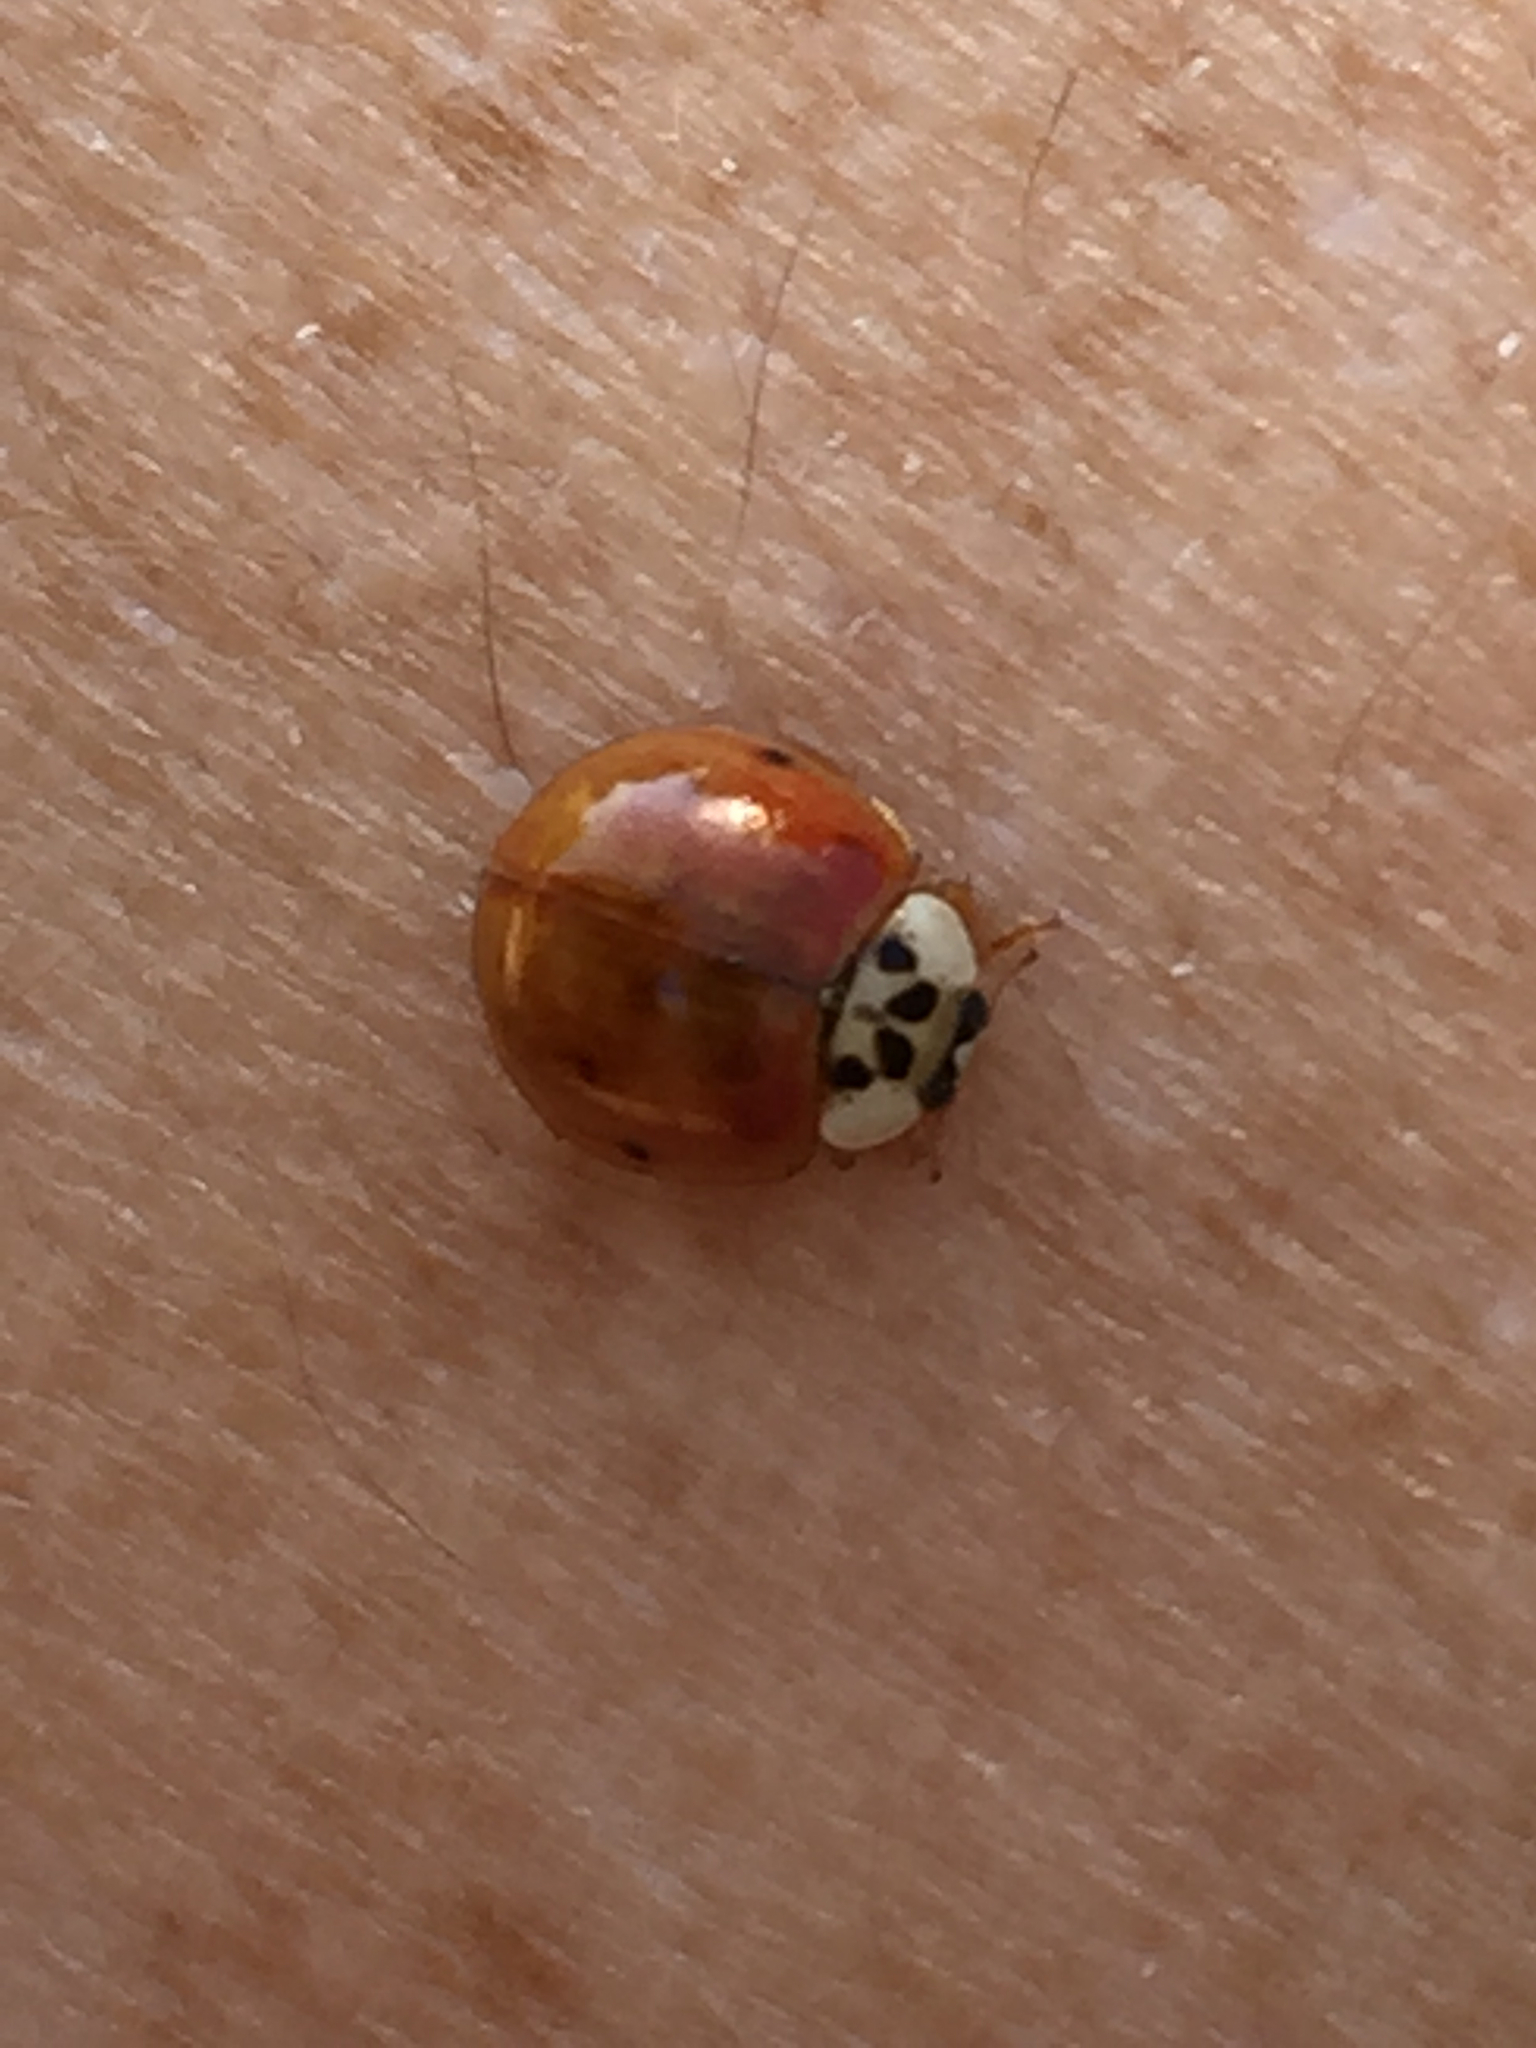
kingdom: Animalia
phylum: Arthropoda
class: Insecta
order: Coleoptera
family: Coccinellidae
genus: Harmonia
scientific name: Harmonia axyridis
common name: Harlequin ladybird
